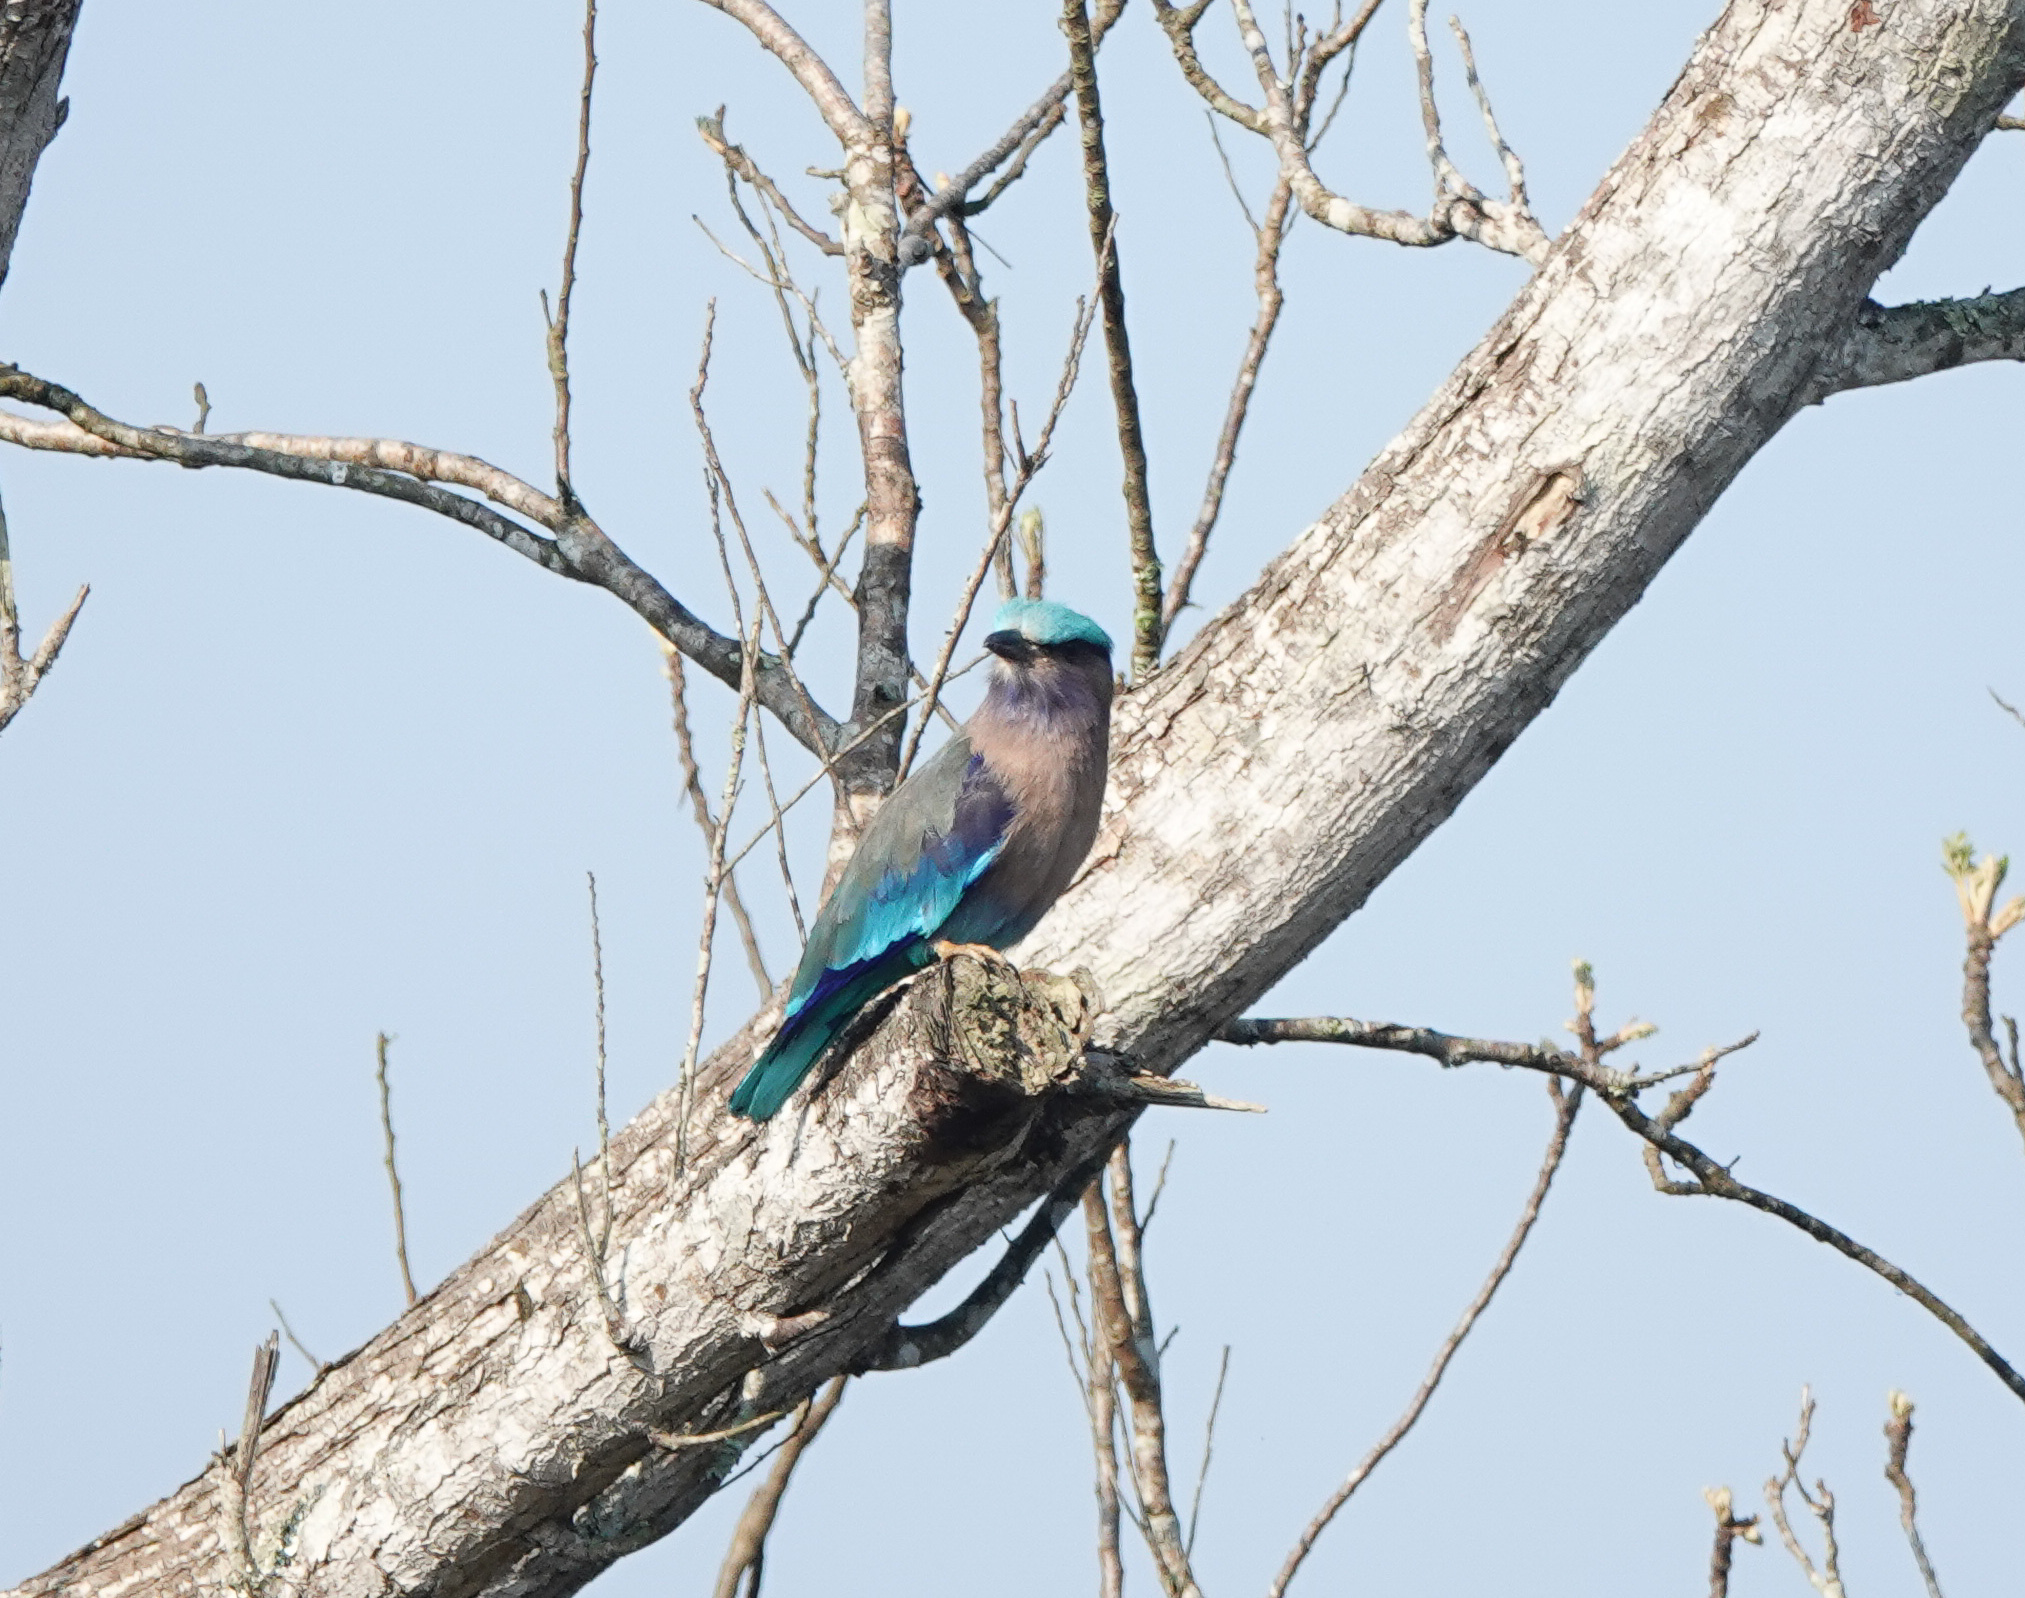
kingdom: Animalia
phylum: Chordata
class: Aves
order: Coraciiformes
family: Coraciidae
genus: Coracias
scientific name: Coracias affinis
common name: Indochinese roller
